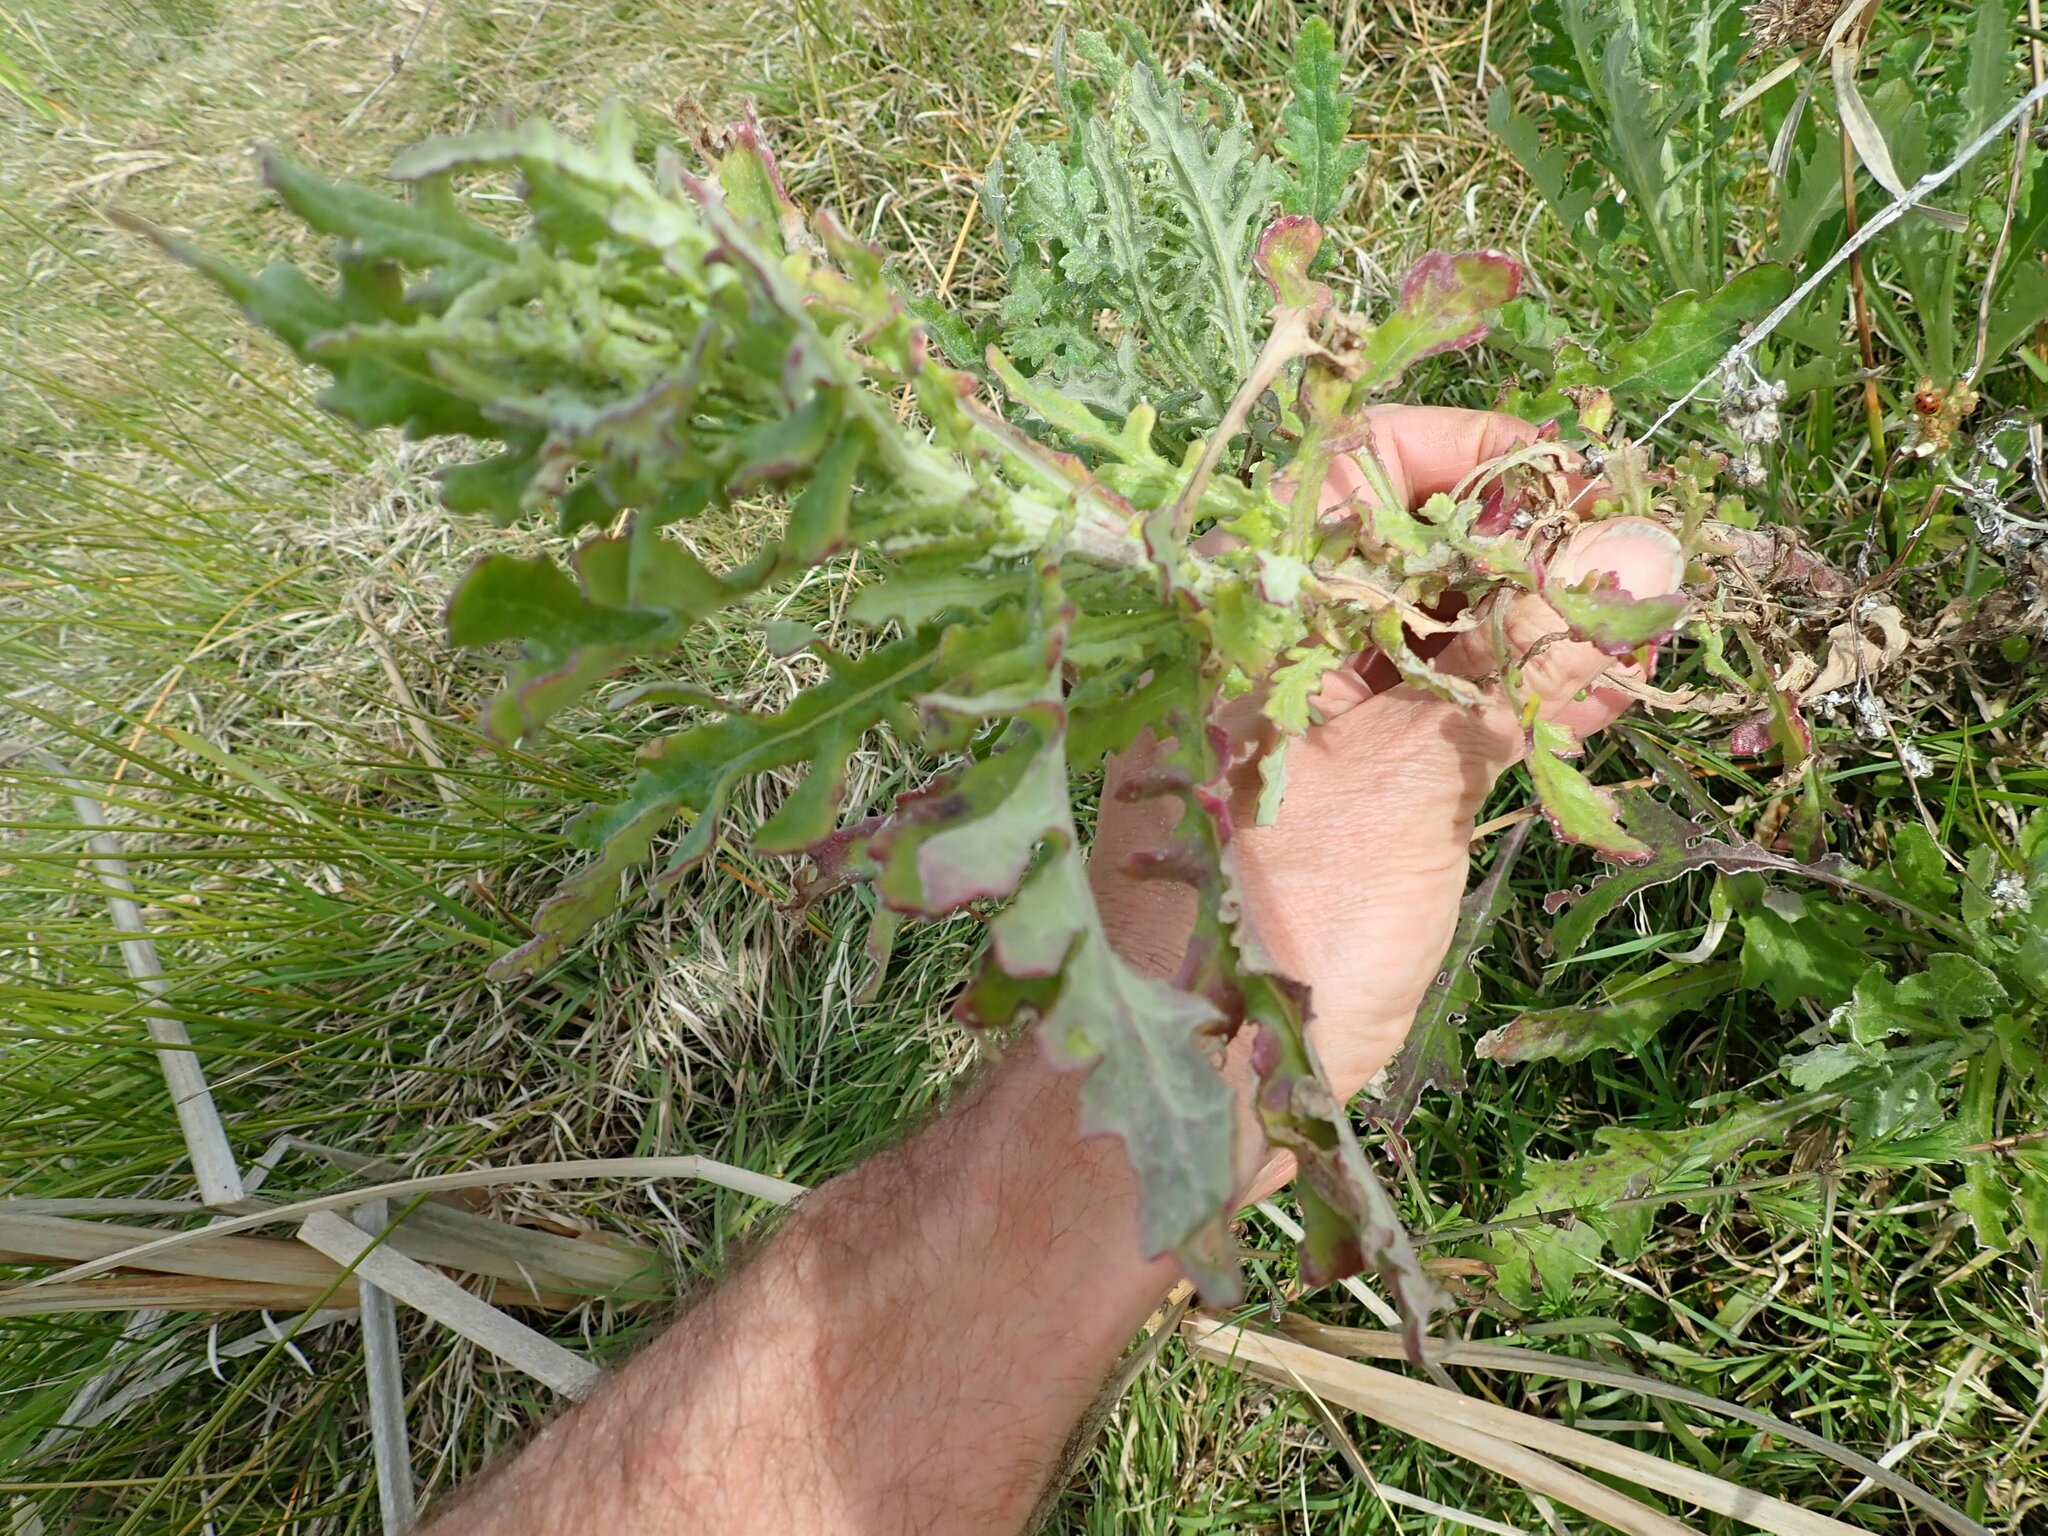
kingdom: Plantae
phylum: Tracheophyta
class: Magnoliopsida
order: Asterales
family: Asteraceae
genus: Senecio
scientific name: Senecio glomeratus
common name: Cutleaf burnweed
